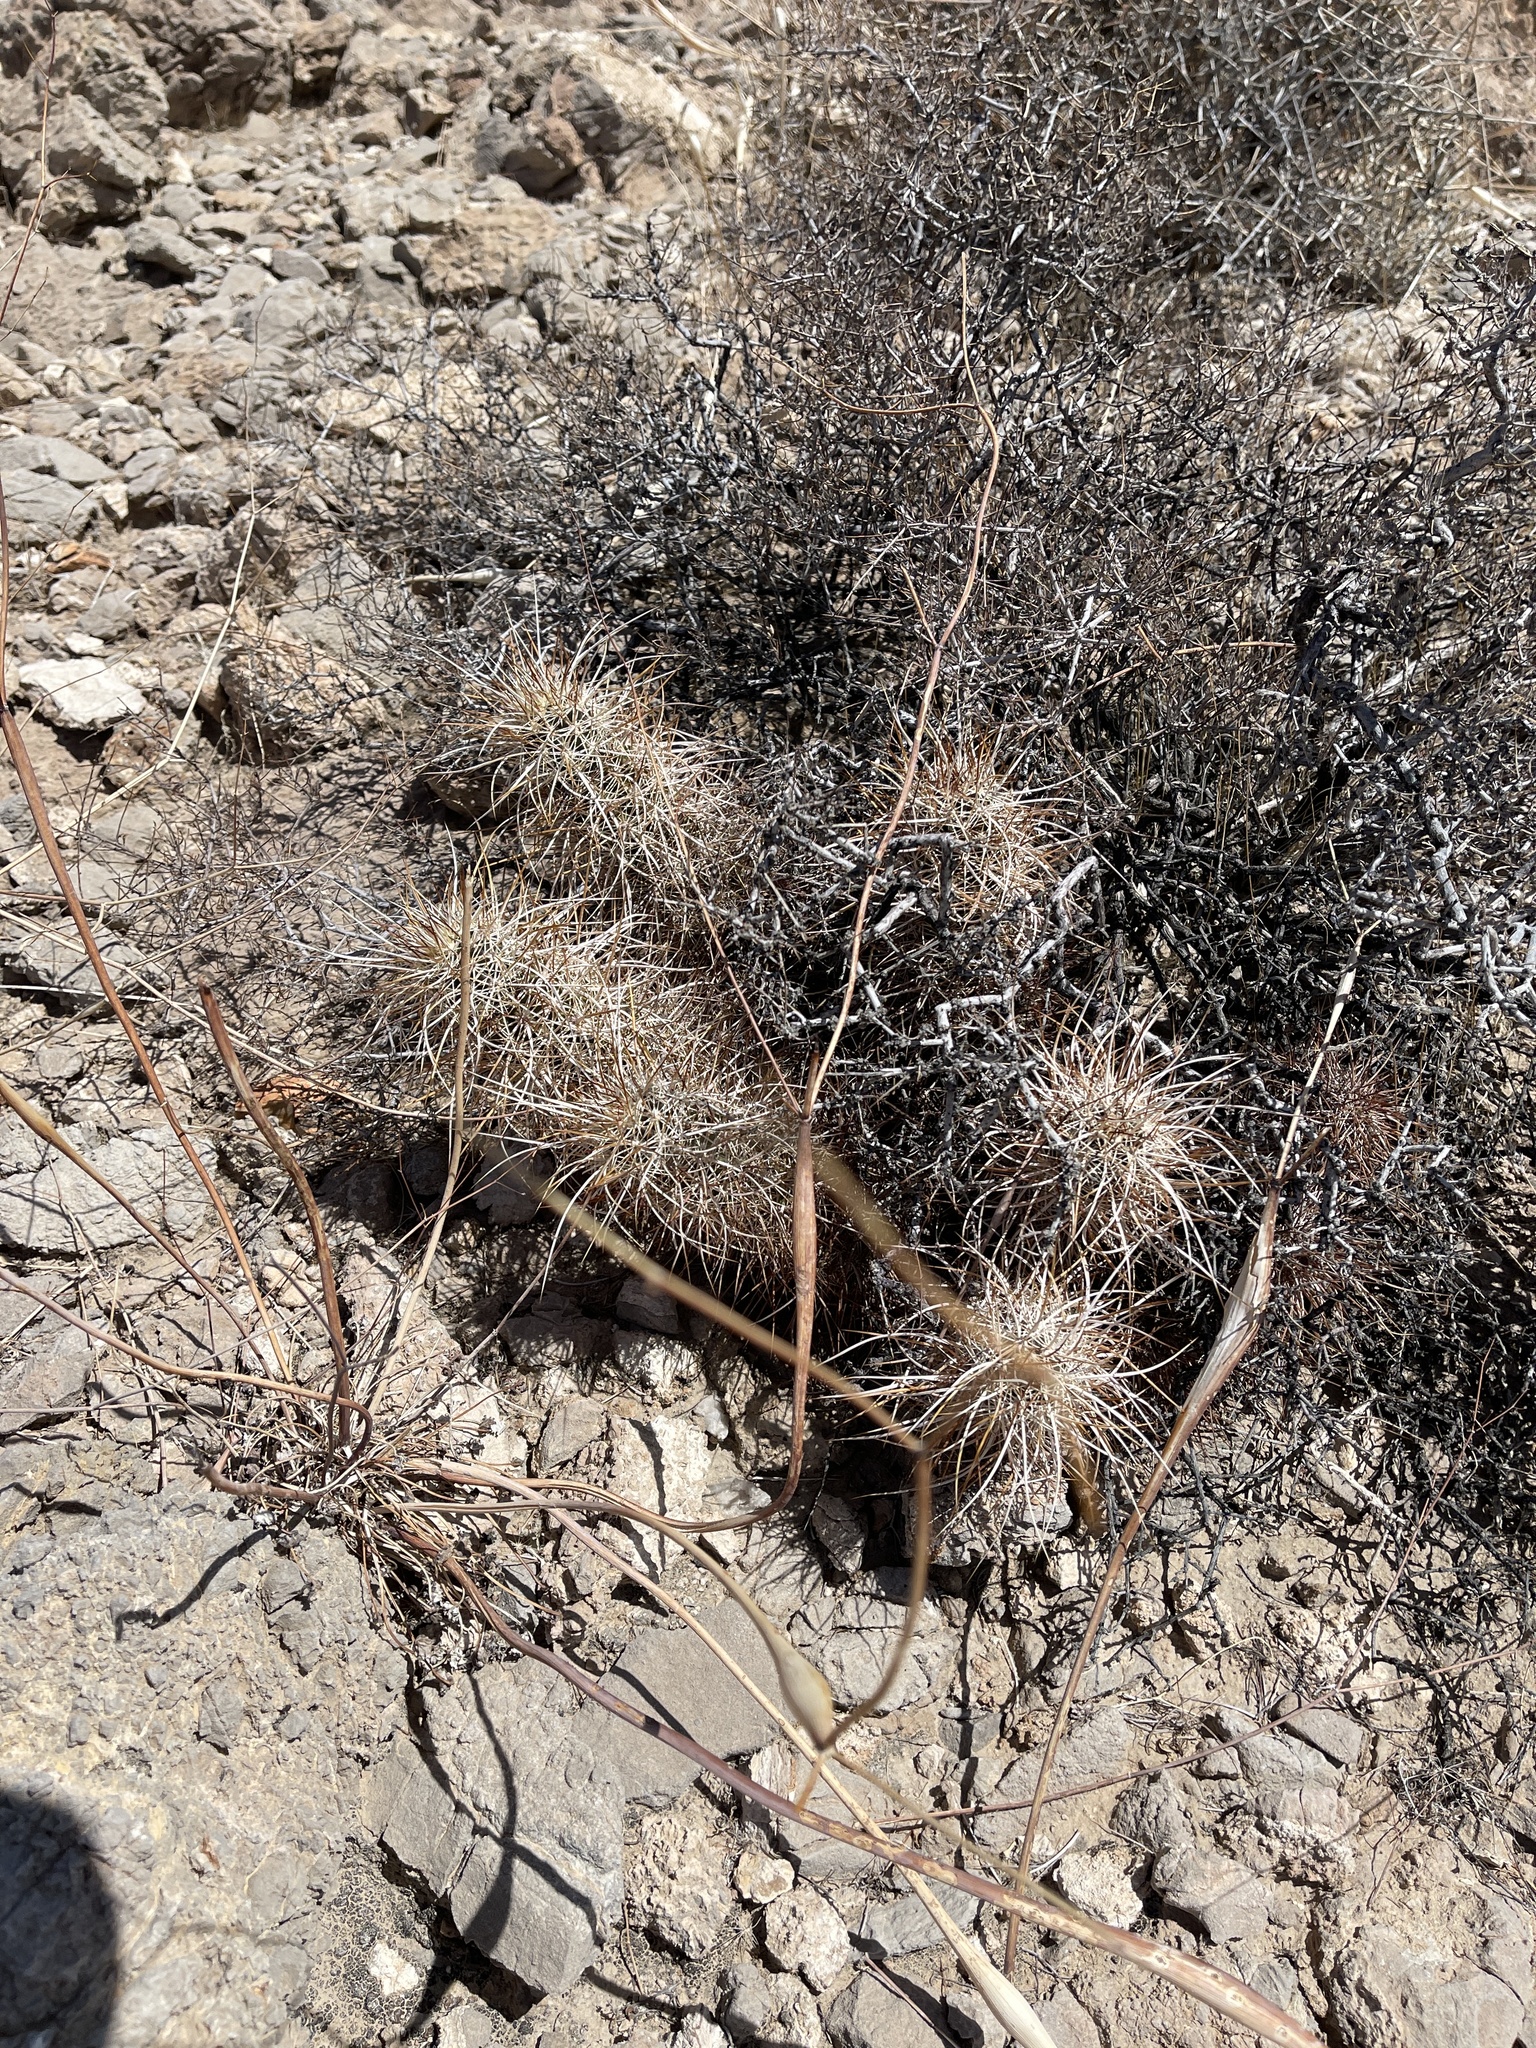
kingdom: Plantae
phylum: Tracheophyta
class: Magnoliopsida
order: Caryophyllales
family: Cactaceae
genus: Echinocereus
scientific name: Echinocereus engelmannii
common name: Engelmann's hedgehog cactus
